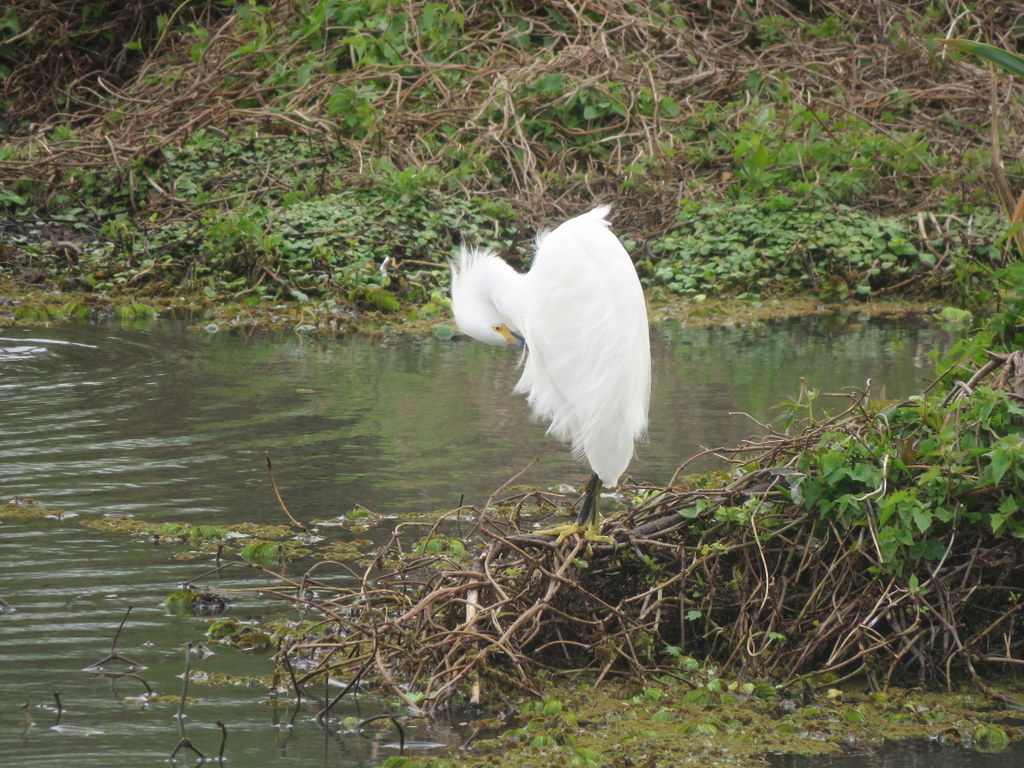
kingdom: Animalia
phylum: Chordata
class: Aves
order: Pelecaniformes
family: Ardeidae
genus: Egretta
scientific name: Egretta thula
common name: Snowy egret
